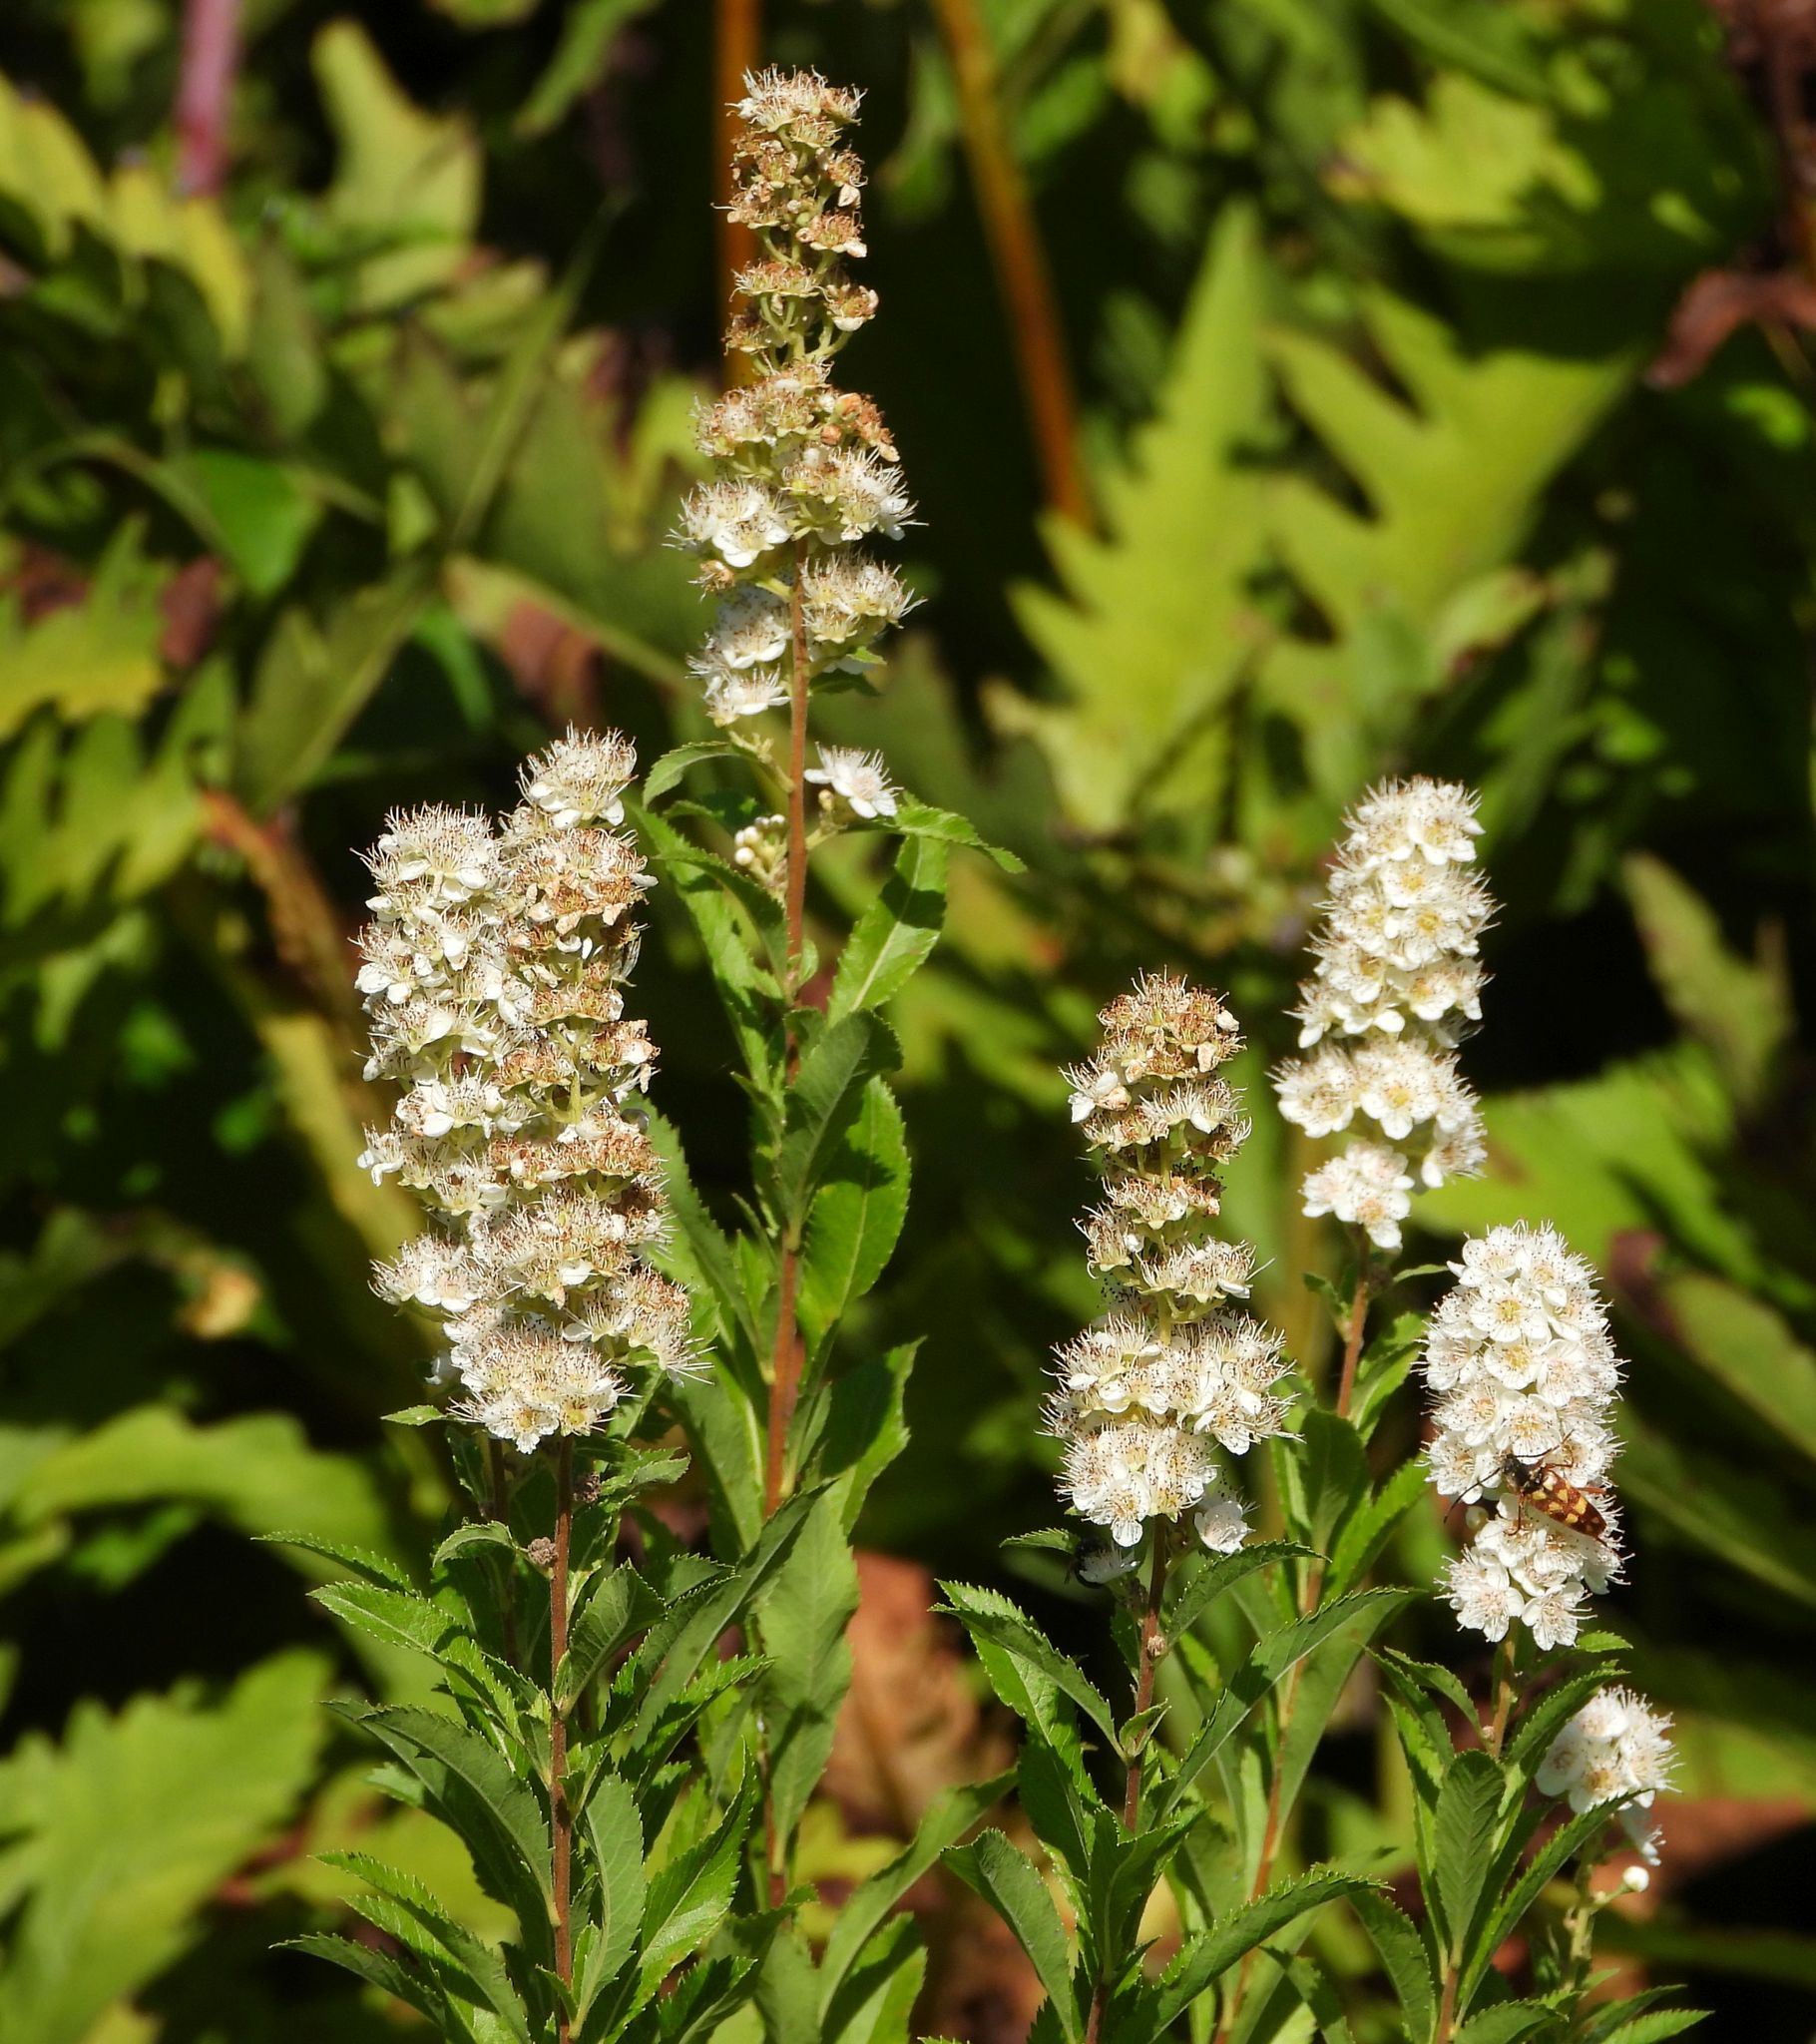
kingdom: Plantae
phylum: Tracheophyta
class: Magnoliopsida
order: Rosales
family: Rosaceae
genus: Spiraea
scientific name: Spiraea alba
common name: Pale bridewort
